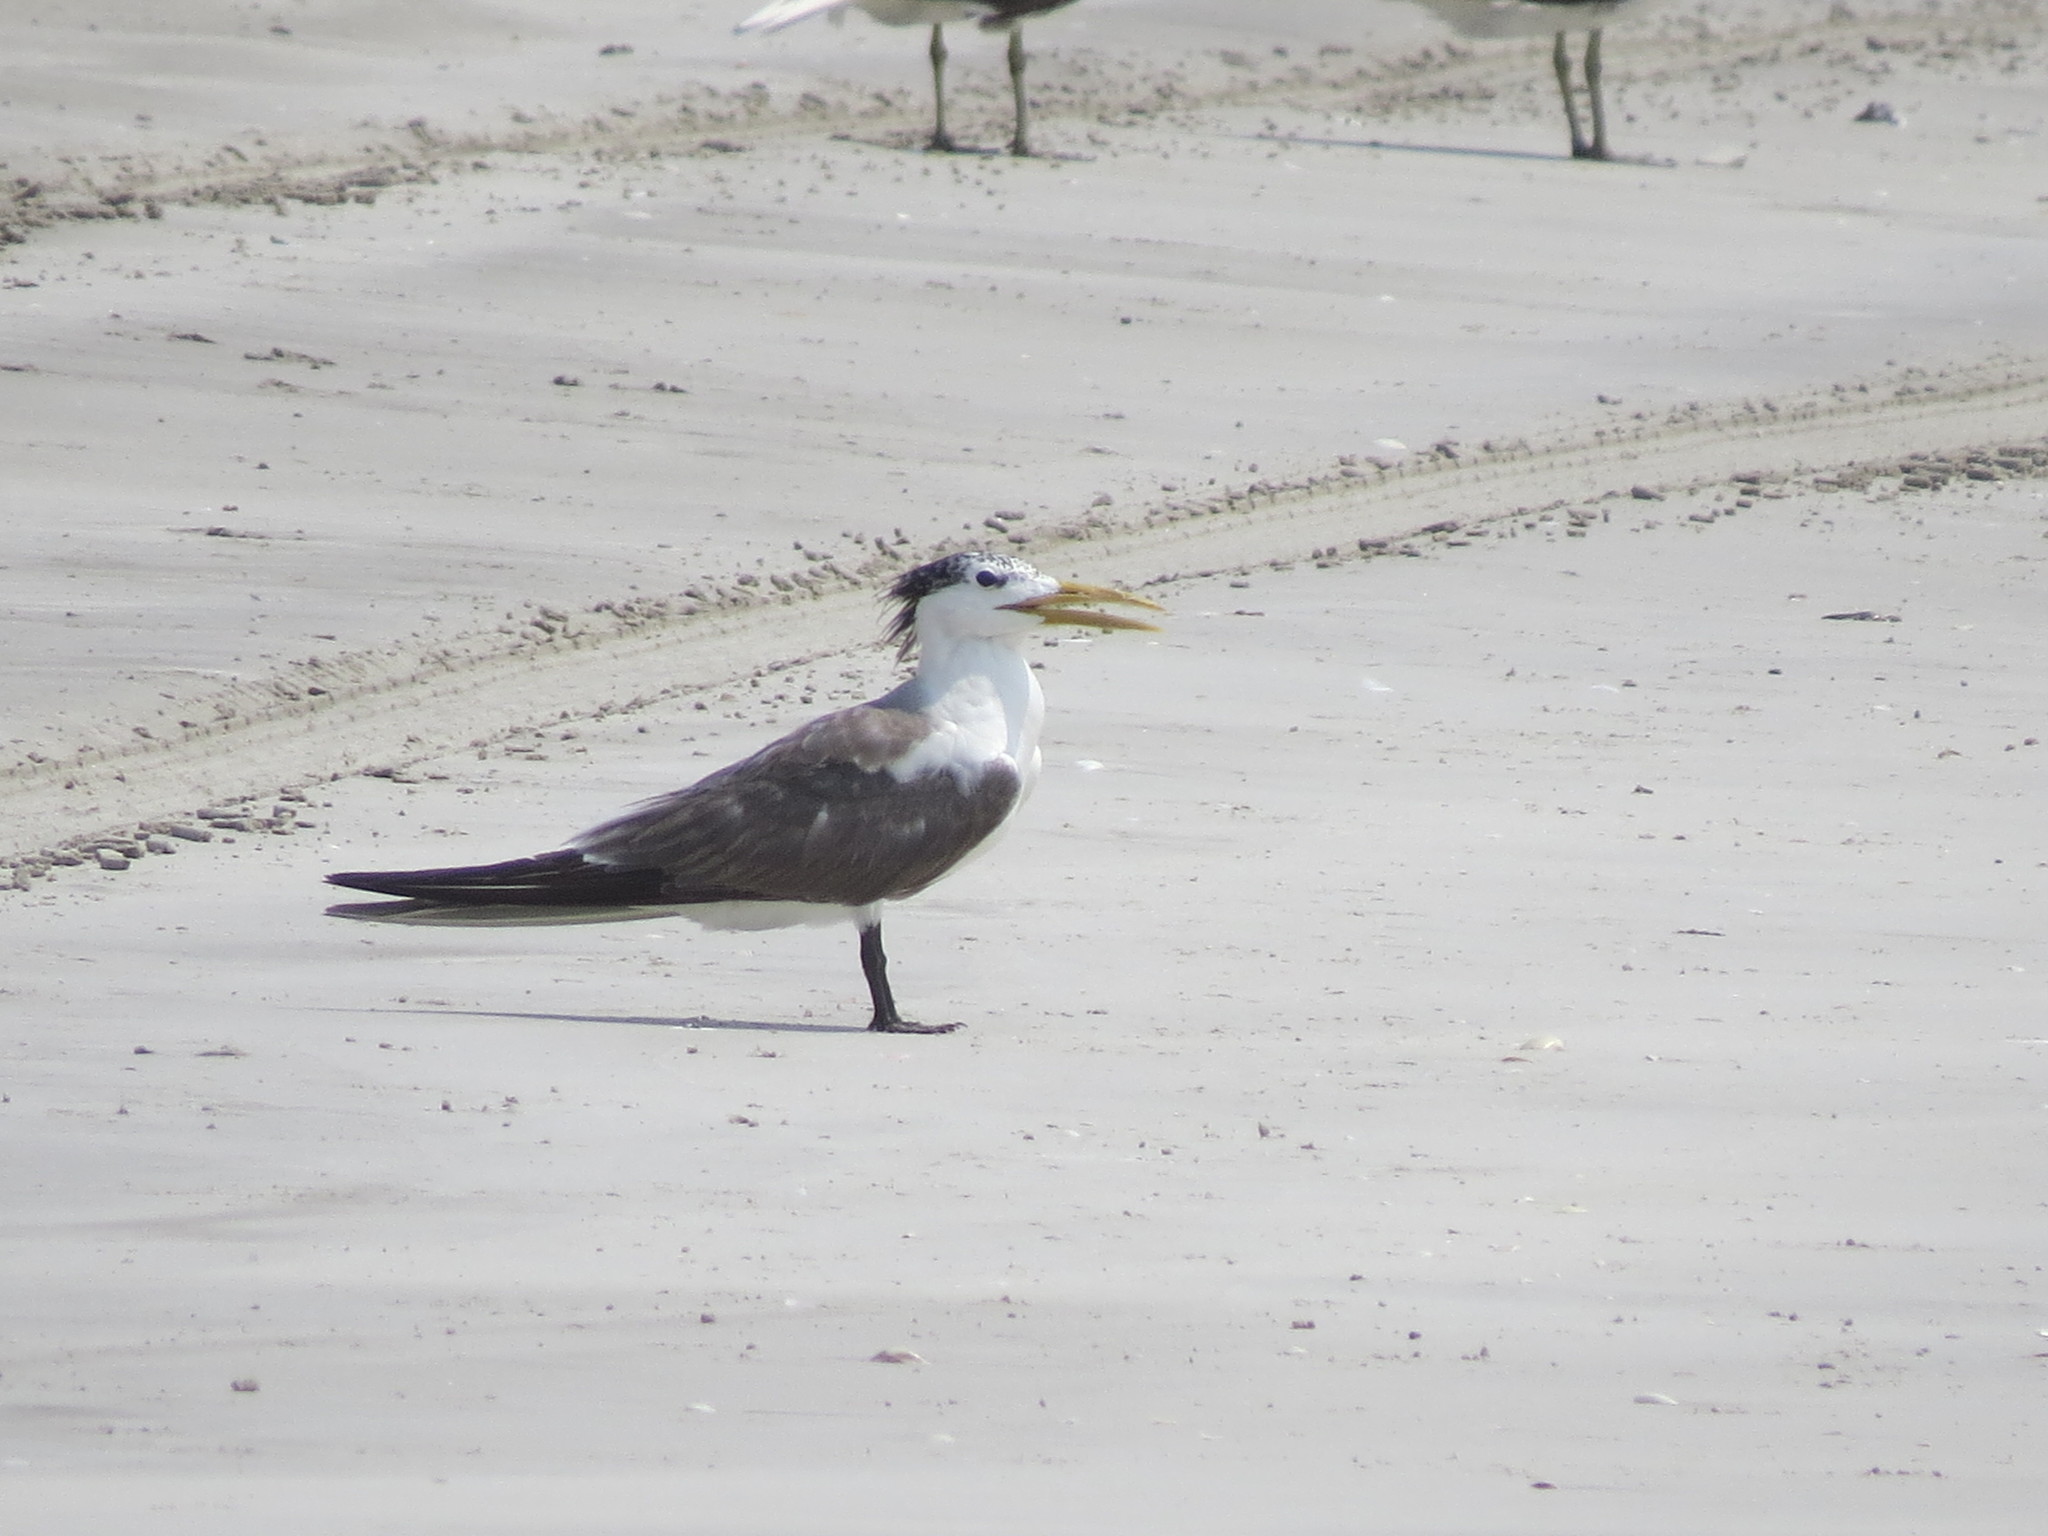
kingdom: Animalia
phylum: Chordata
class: Aves
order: Charadriiformes
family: Laridae
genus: Thalasseus
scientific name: Thalasseus bergii
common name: Greater crested tern
